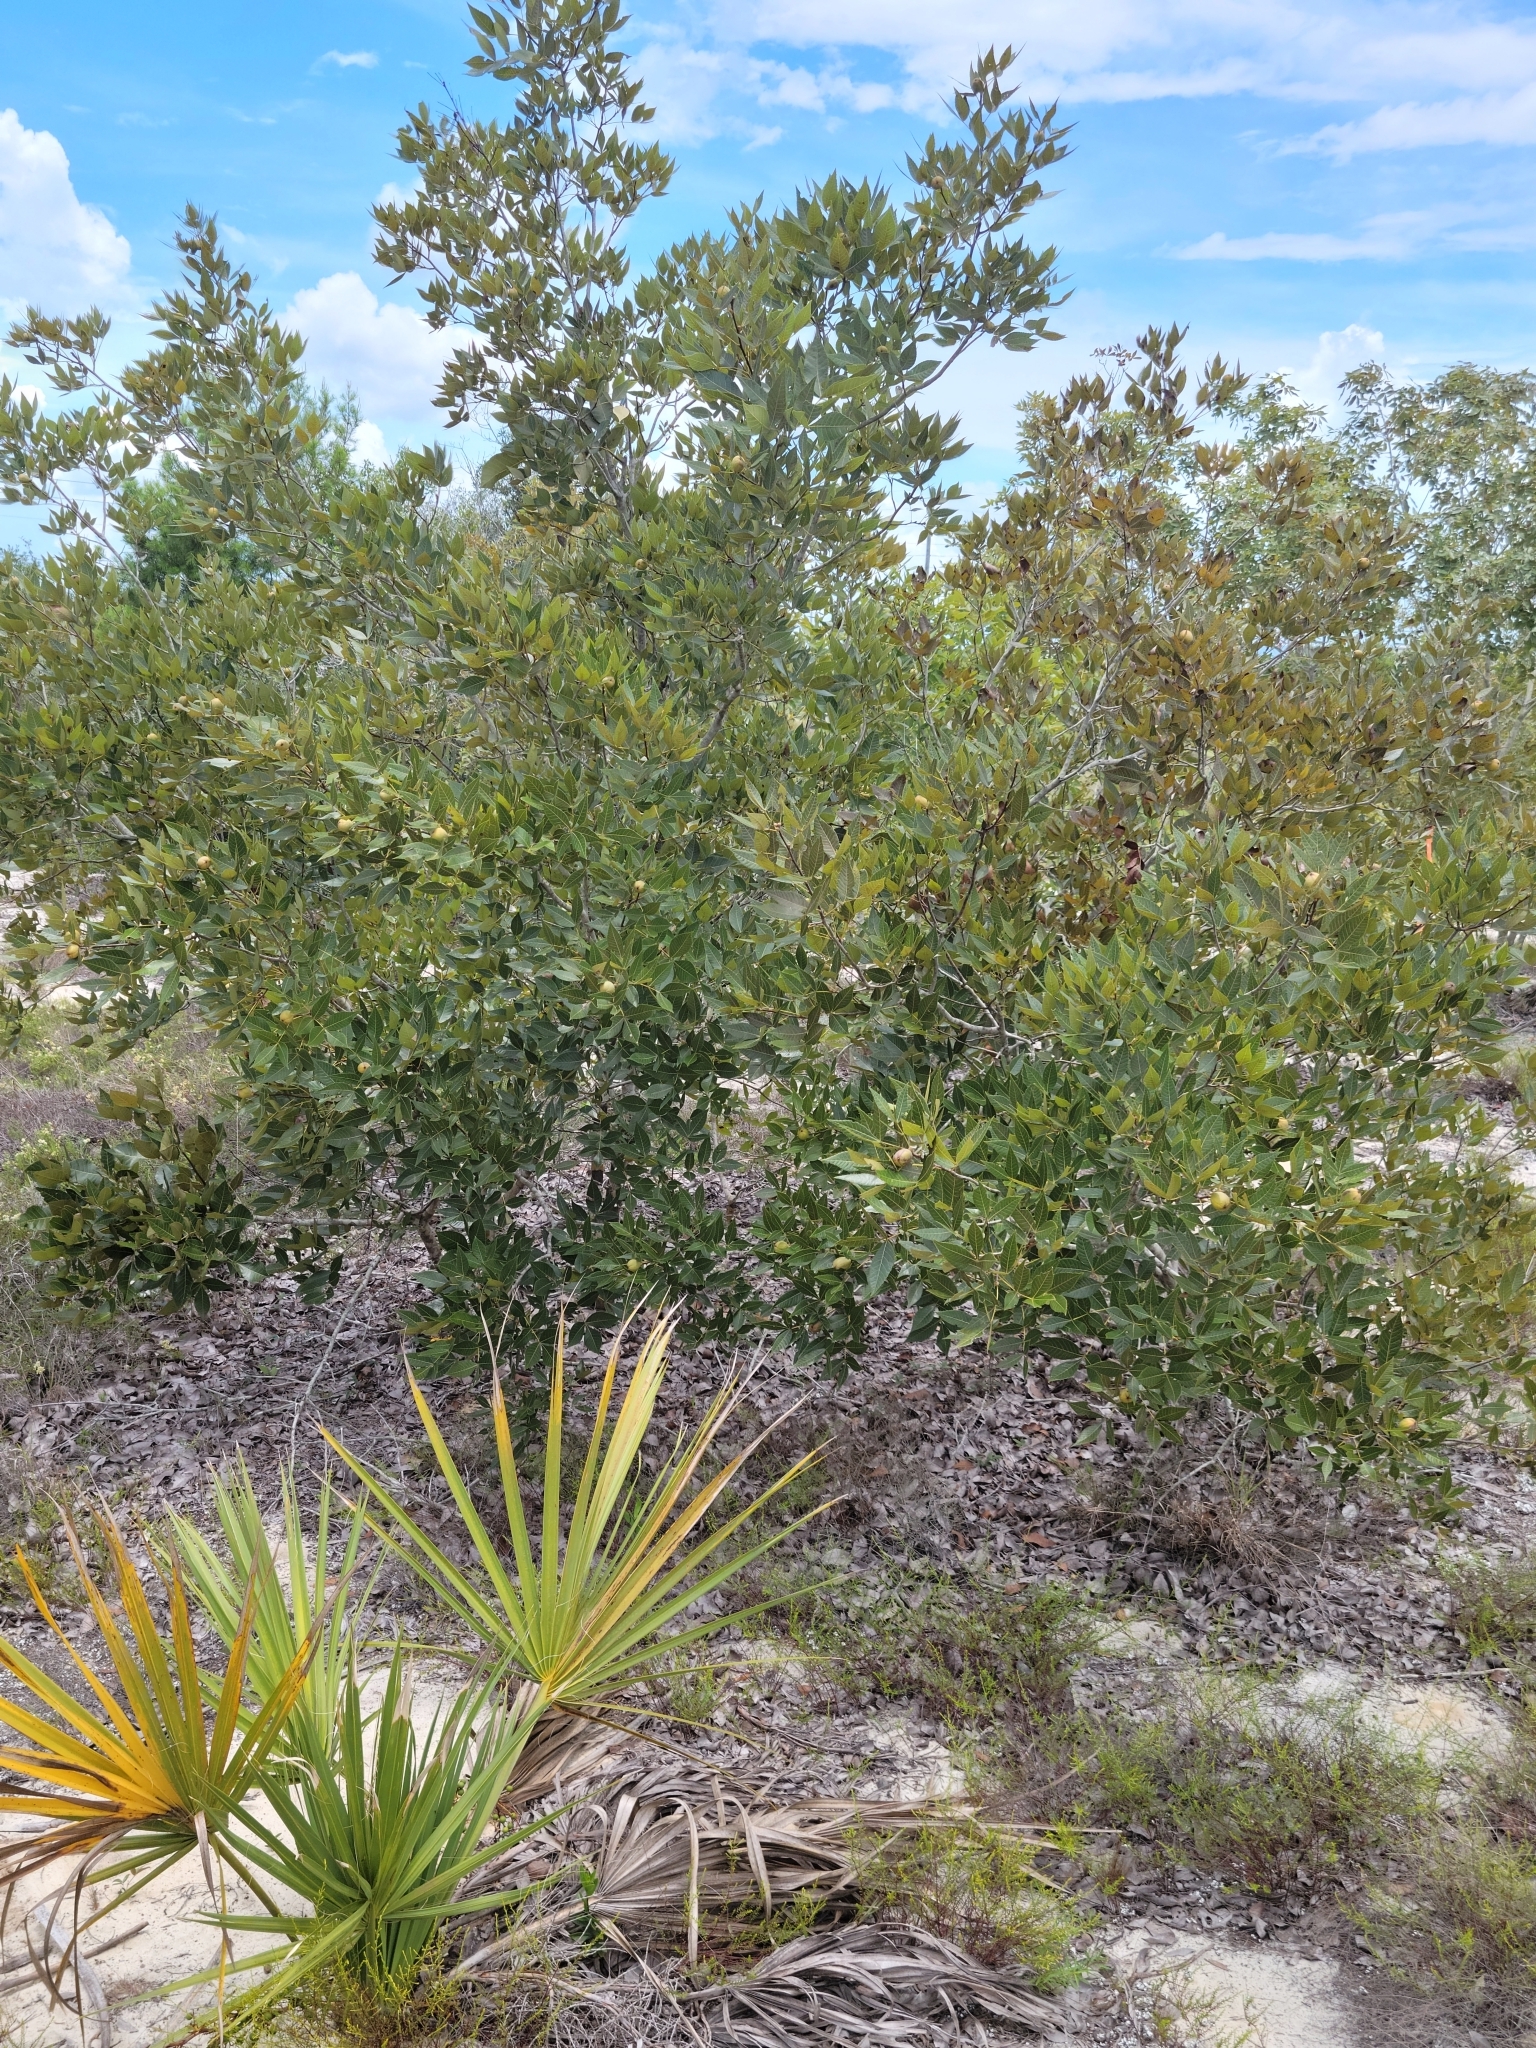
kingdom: Plantae
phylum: Tracheophyta
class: Magnoliopsida
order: Fagales
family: Juglandaceae
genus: Carya
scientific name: Carya floridana
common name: Scrub hickory
